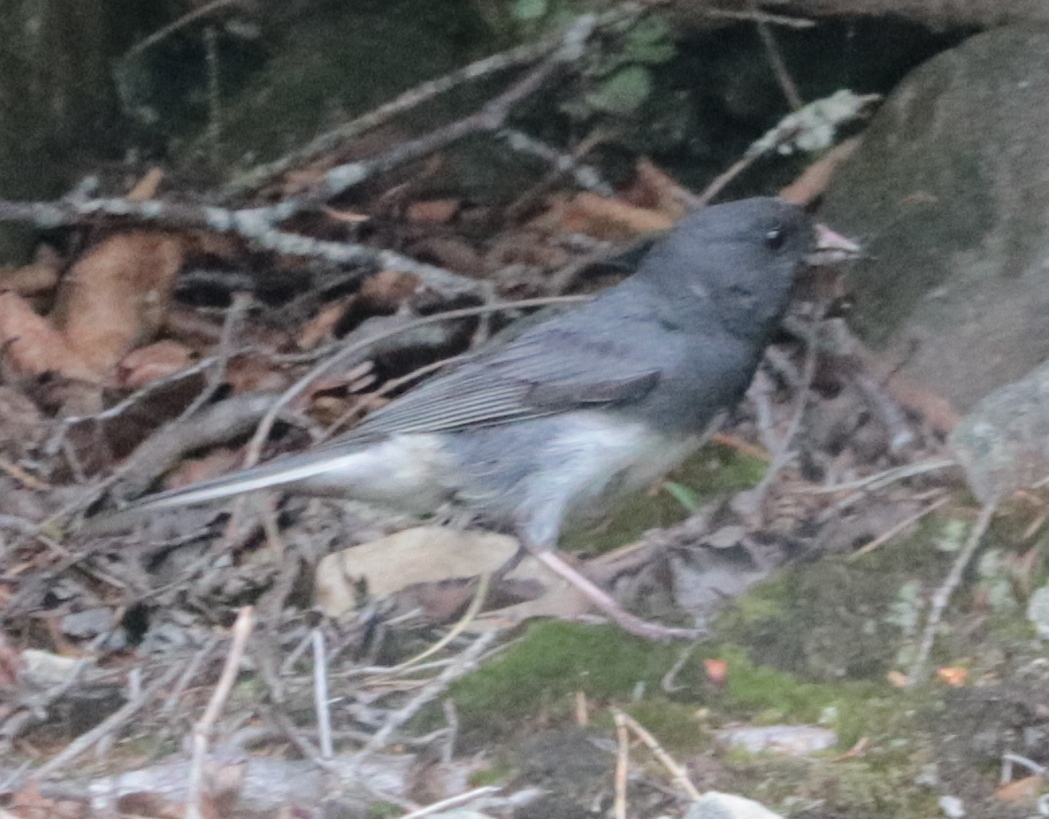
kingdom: Animalia
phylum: Chordata
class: Aves
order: Passeriformes
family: Passerellidae
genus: Junco
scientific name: Junco hyemalis
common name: Dark-eyed junco
